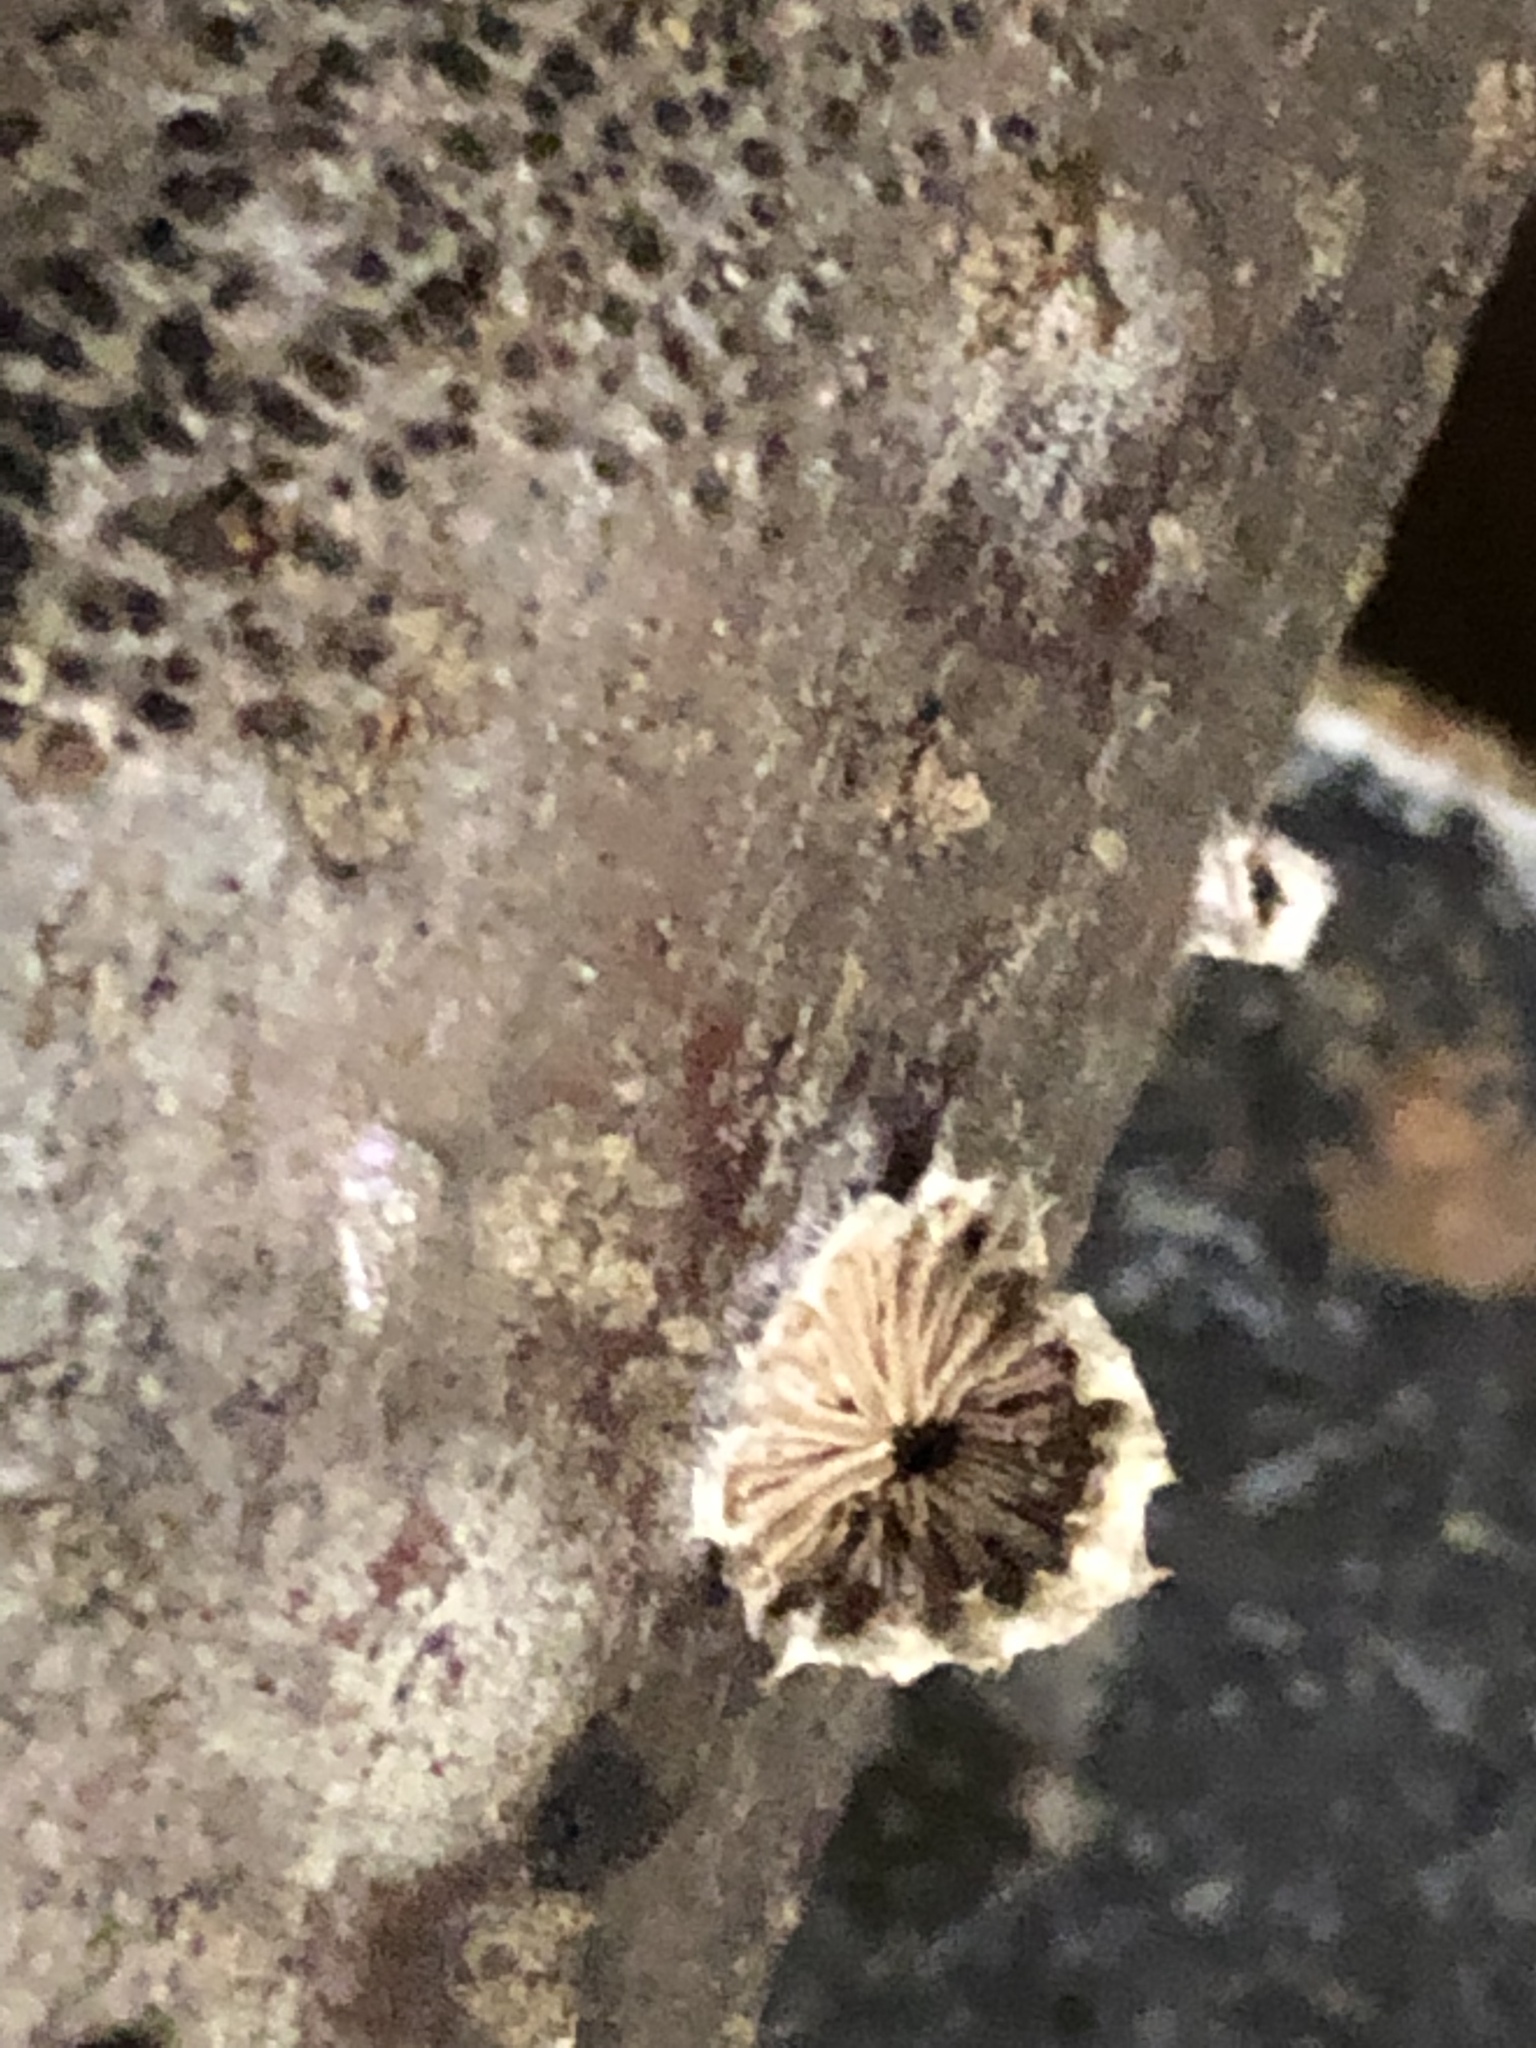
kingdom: Fungi
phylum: Basidiomycota
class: Agaricomycetes
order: Agaricales
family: Schizophyllaceae
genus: Schizophyllum
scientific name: Schizophyllum commune
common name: Common porecrust
